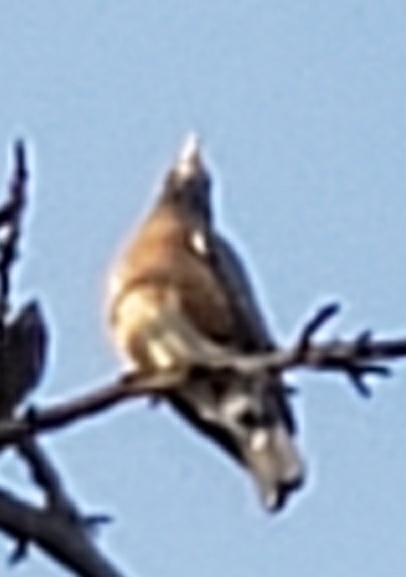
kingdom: Animalia
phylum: Chordata
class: Aves
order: Passeriformes
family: Turdidae
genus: Turdus
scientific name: Turdus migratorius
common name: American robin
